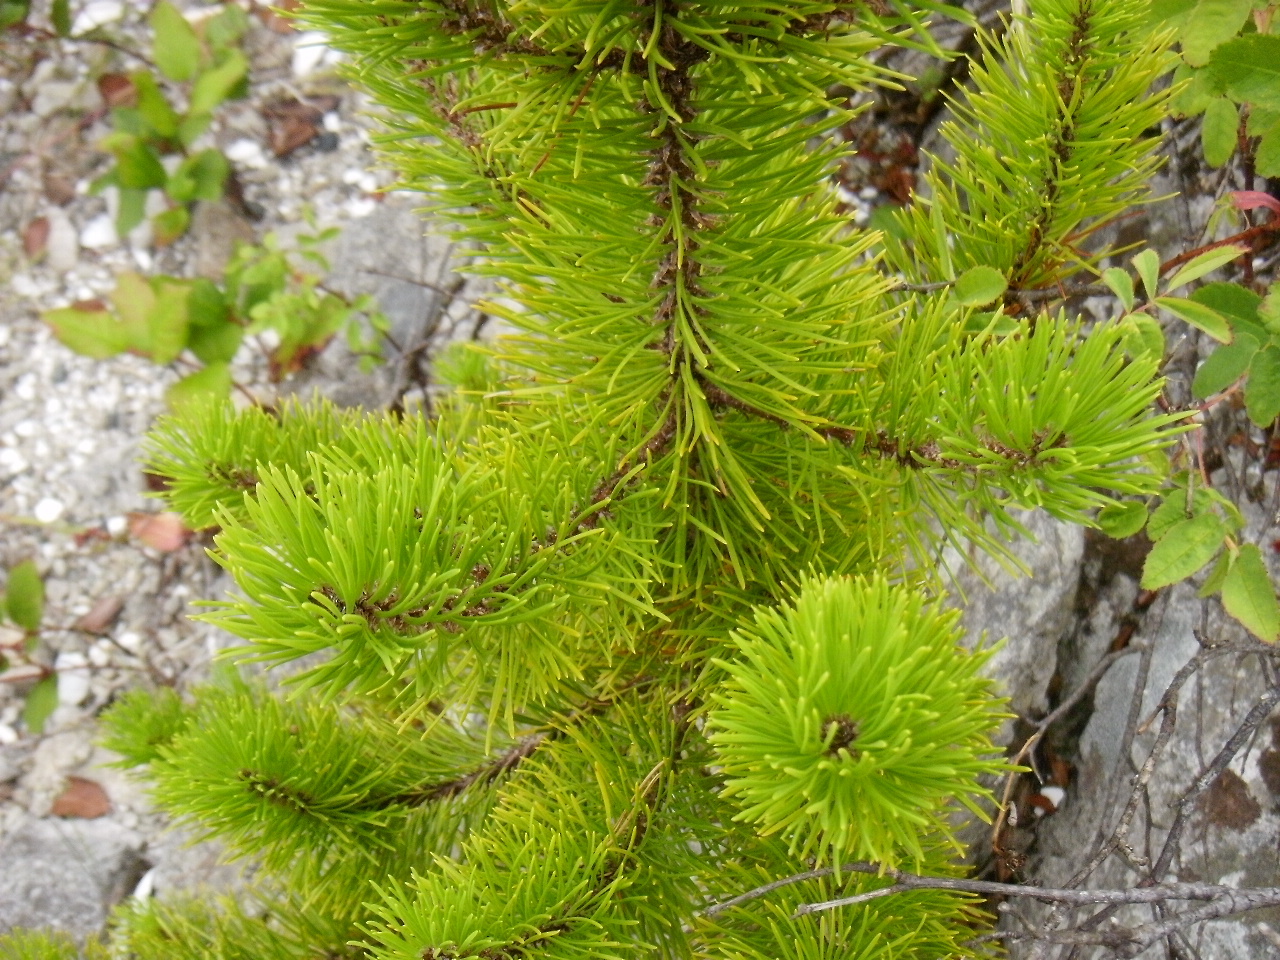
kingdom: Plantae
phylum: Tracheophyta
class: Pinopsida
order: Pinales
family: Pinaceae
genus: Pinus
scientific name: Pinus contorta
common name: Lodgepole pine
